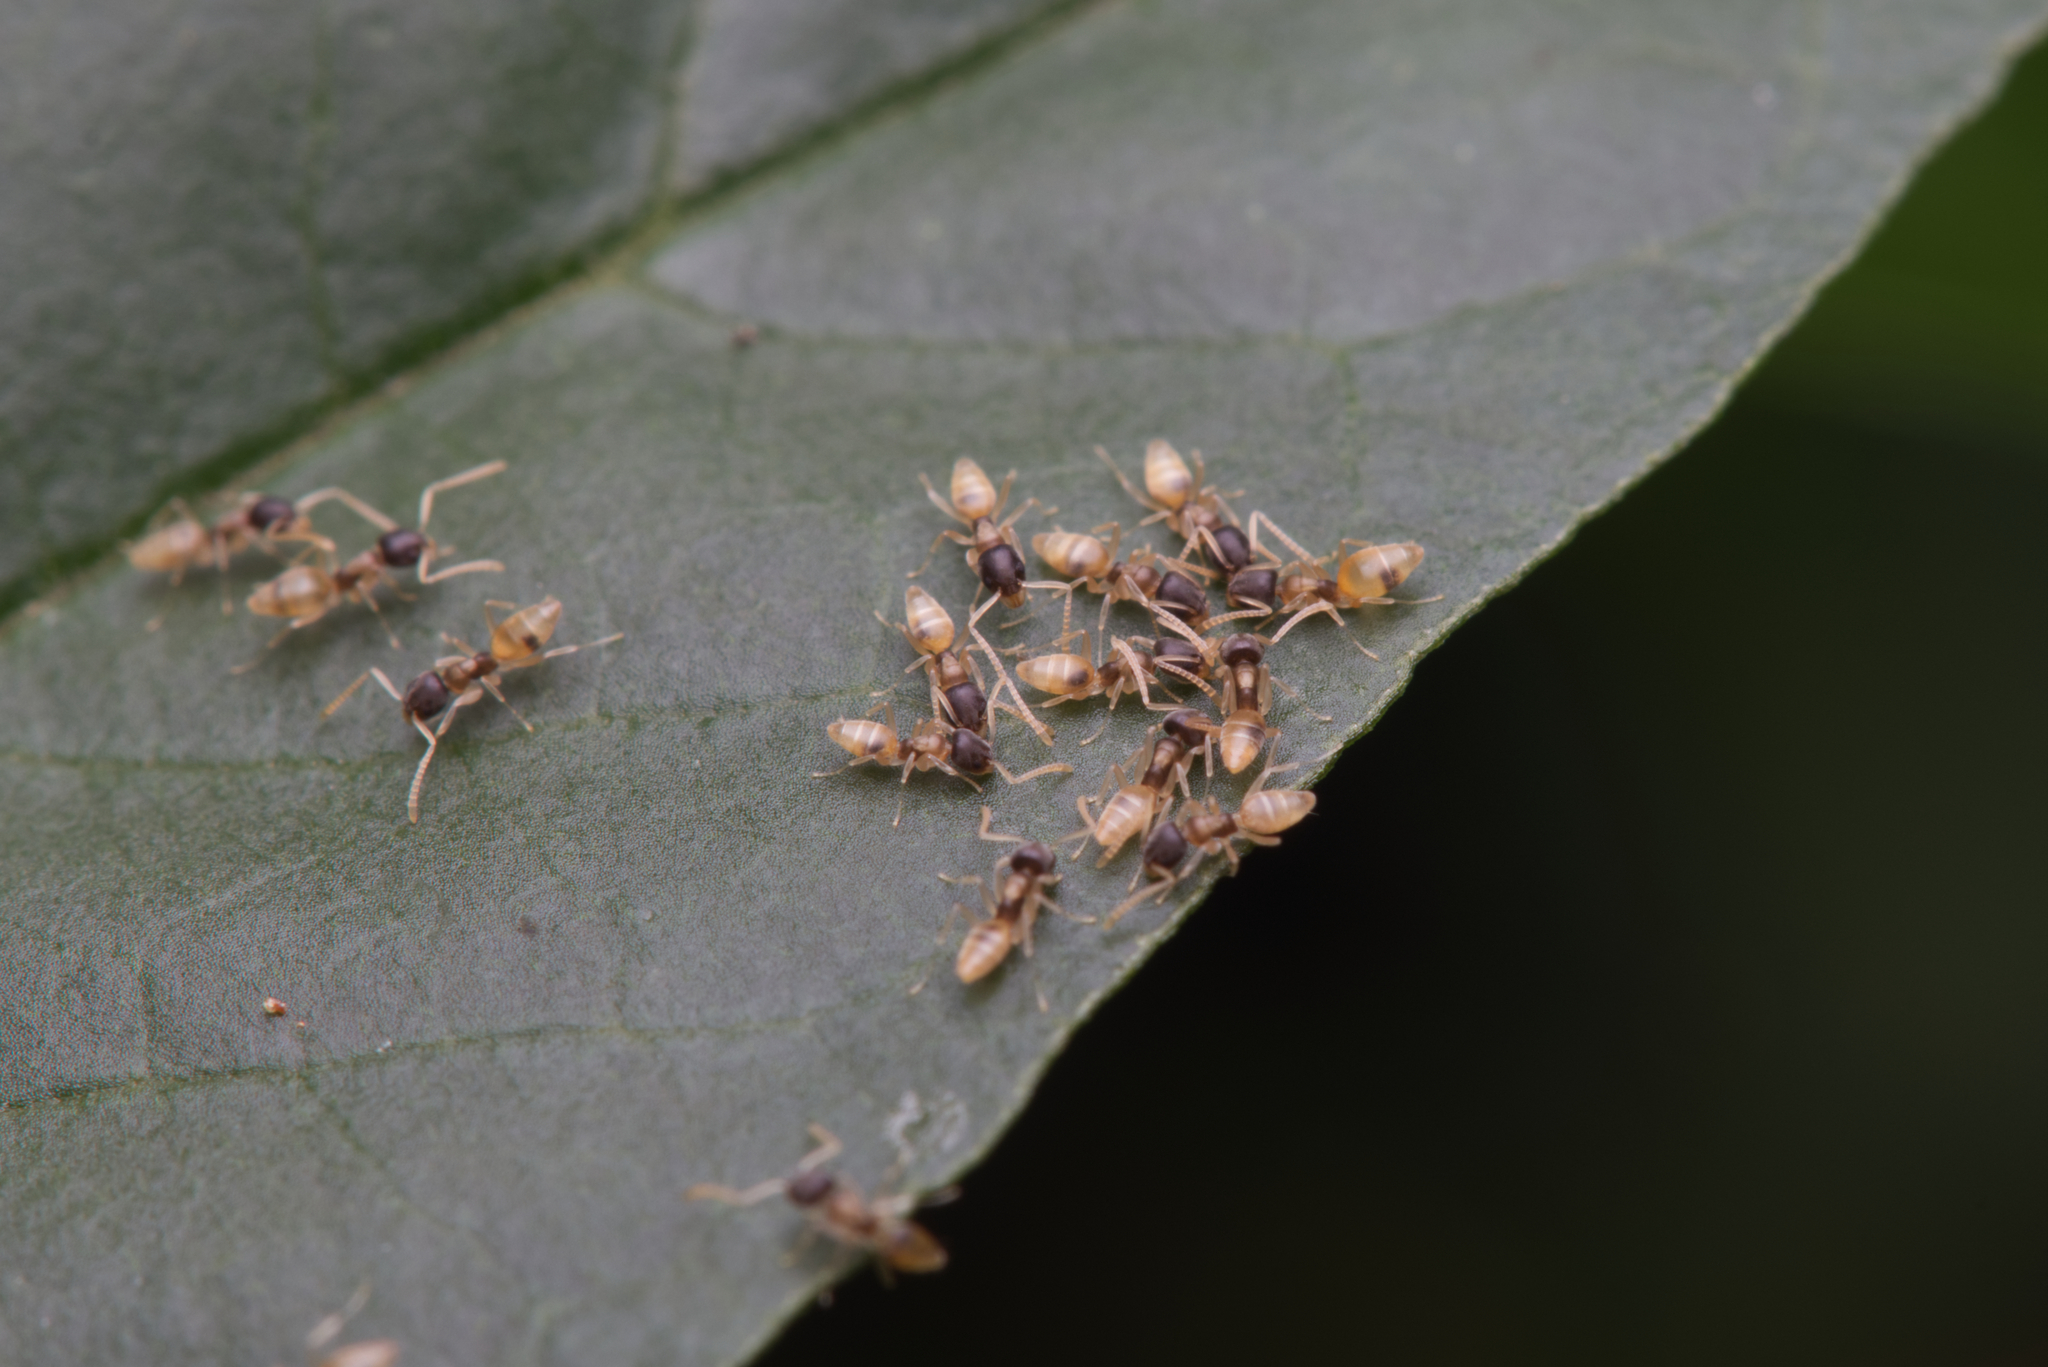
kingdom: Animalia
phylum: Arthropoda
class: Insecta
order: Hymenoptera
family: Formicidae
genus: Tapinoma
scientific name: Tapinoma melanocephalum
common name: Ghost ant
